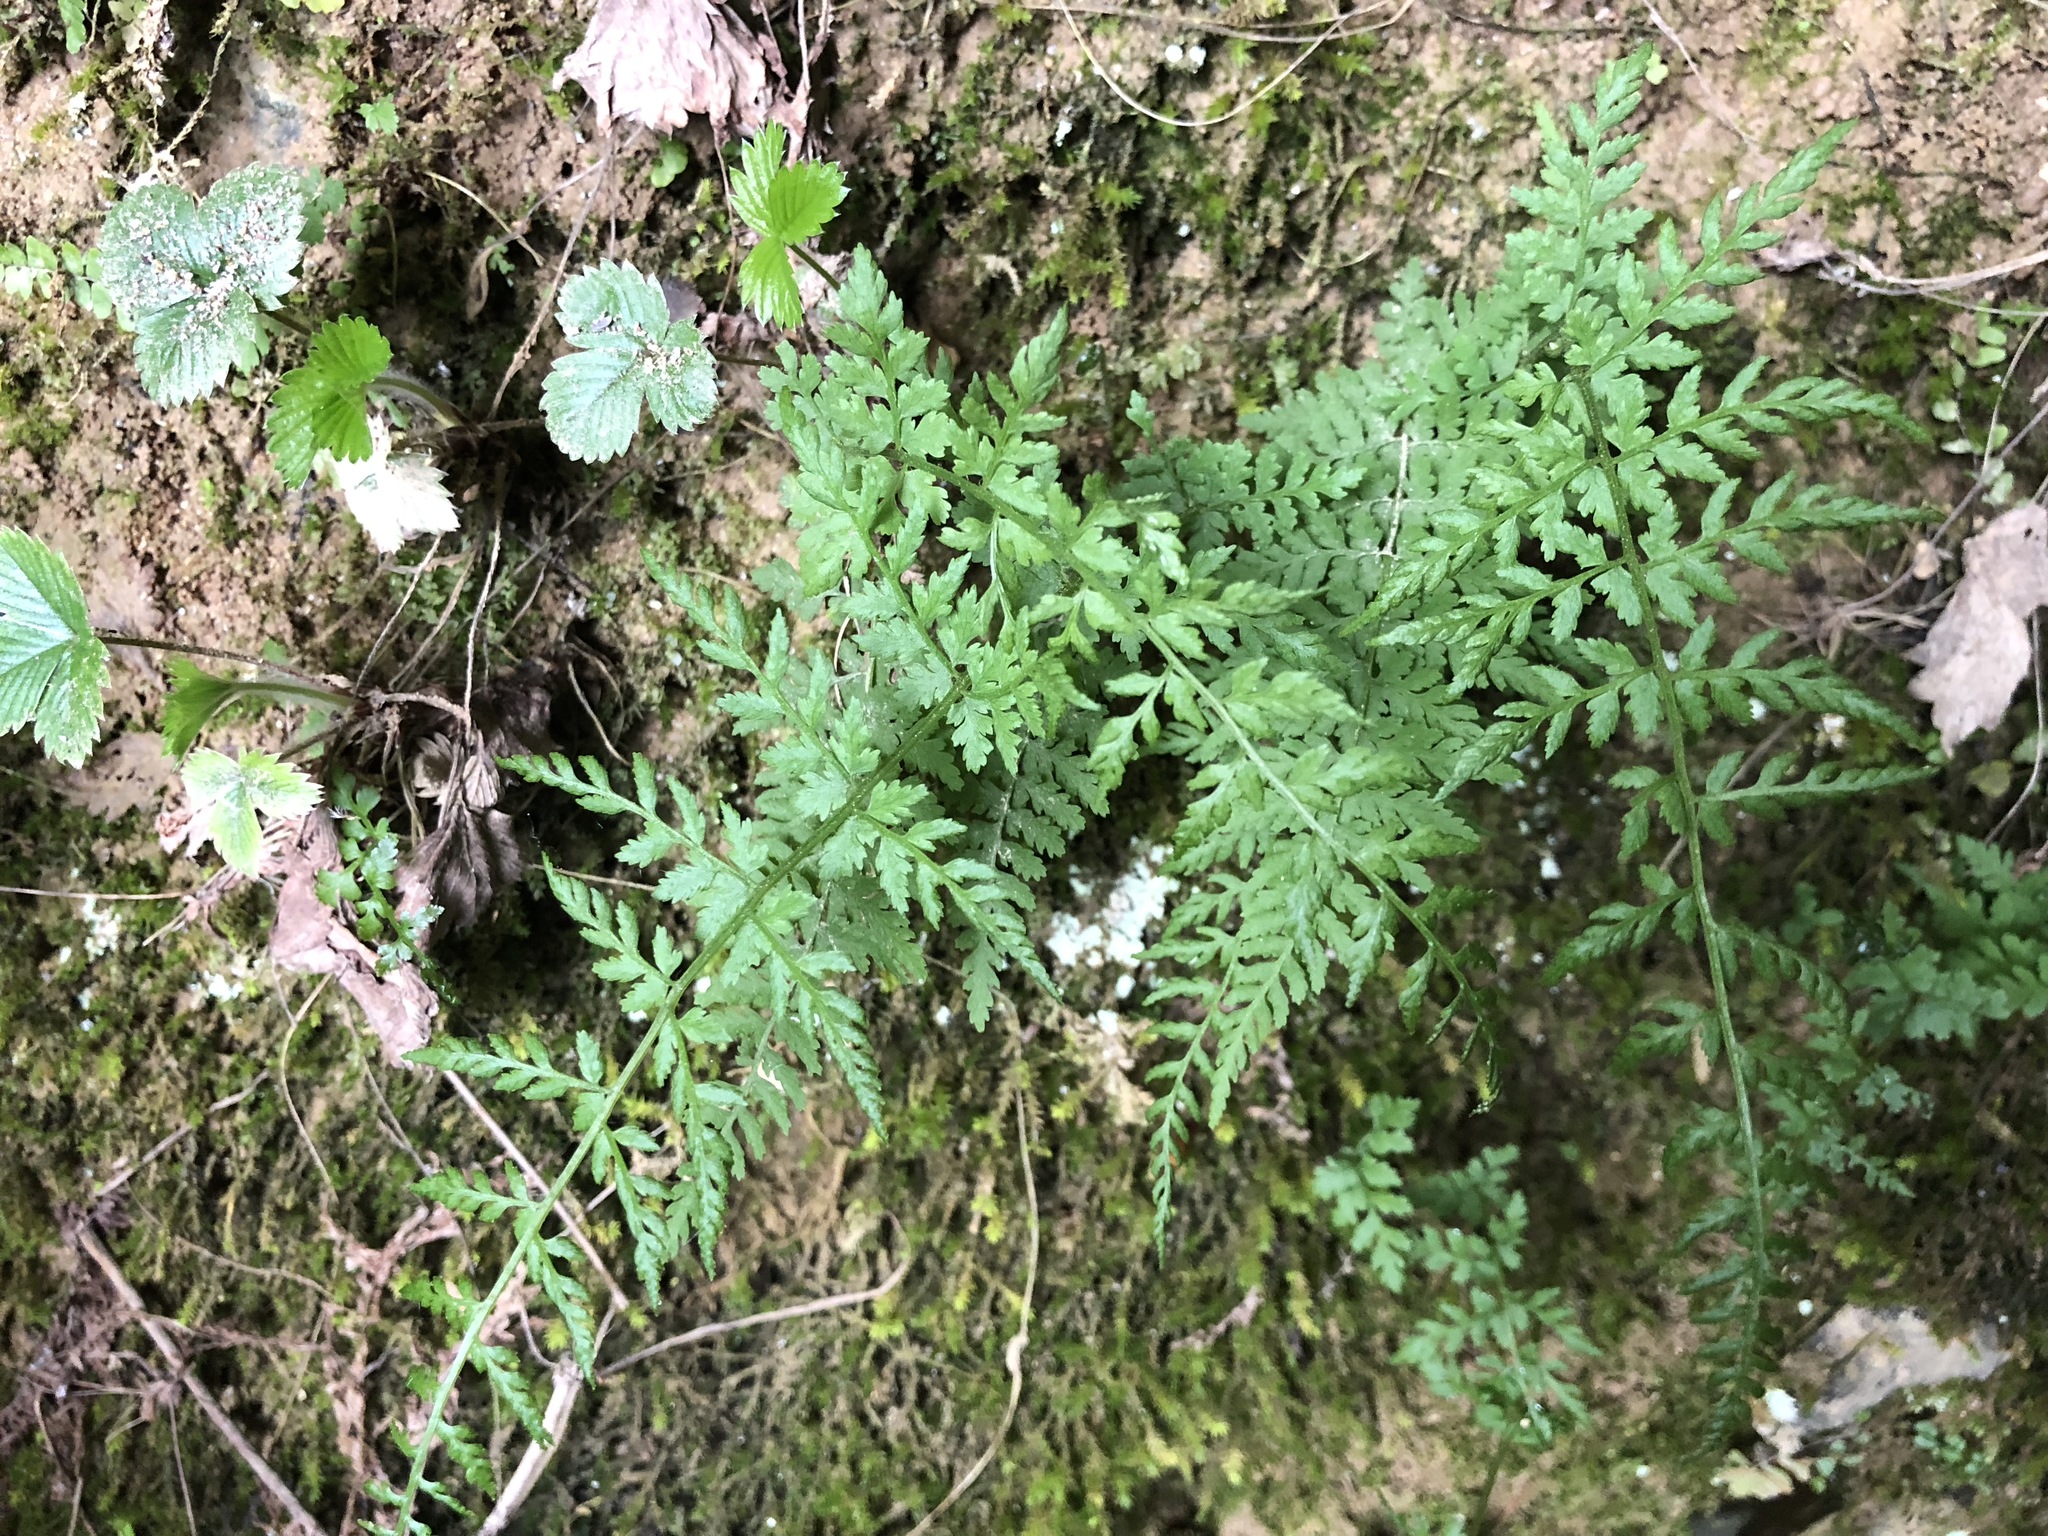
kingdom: Plantae
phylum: Tracheophyta
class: Polypodiopsida
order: Polypodiales
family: Cystopteridaceae
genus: Cystopteris
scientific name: Cystopteris fragilis
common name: Brittle bladder fern
